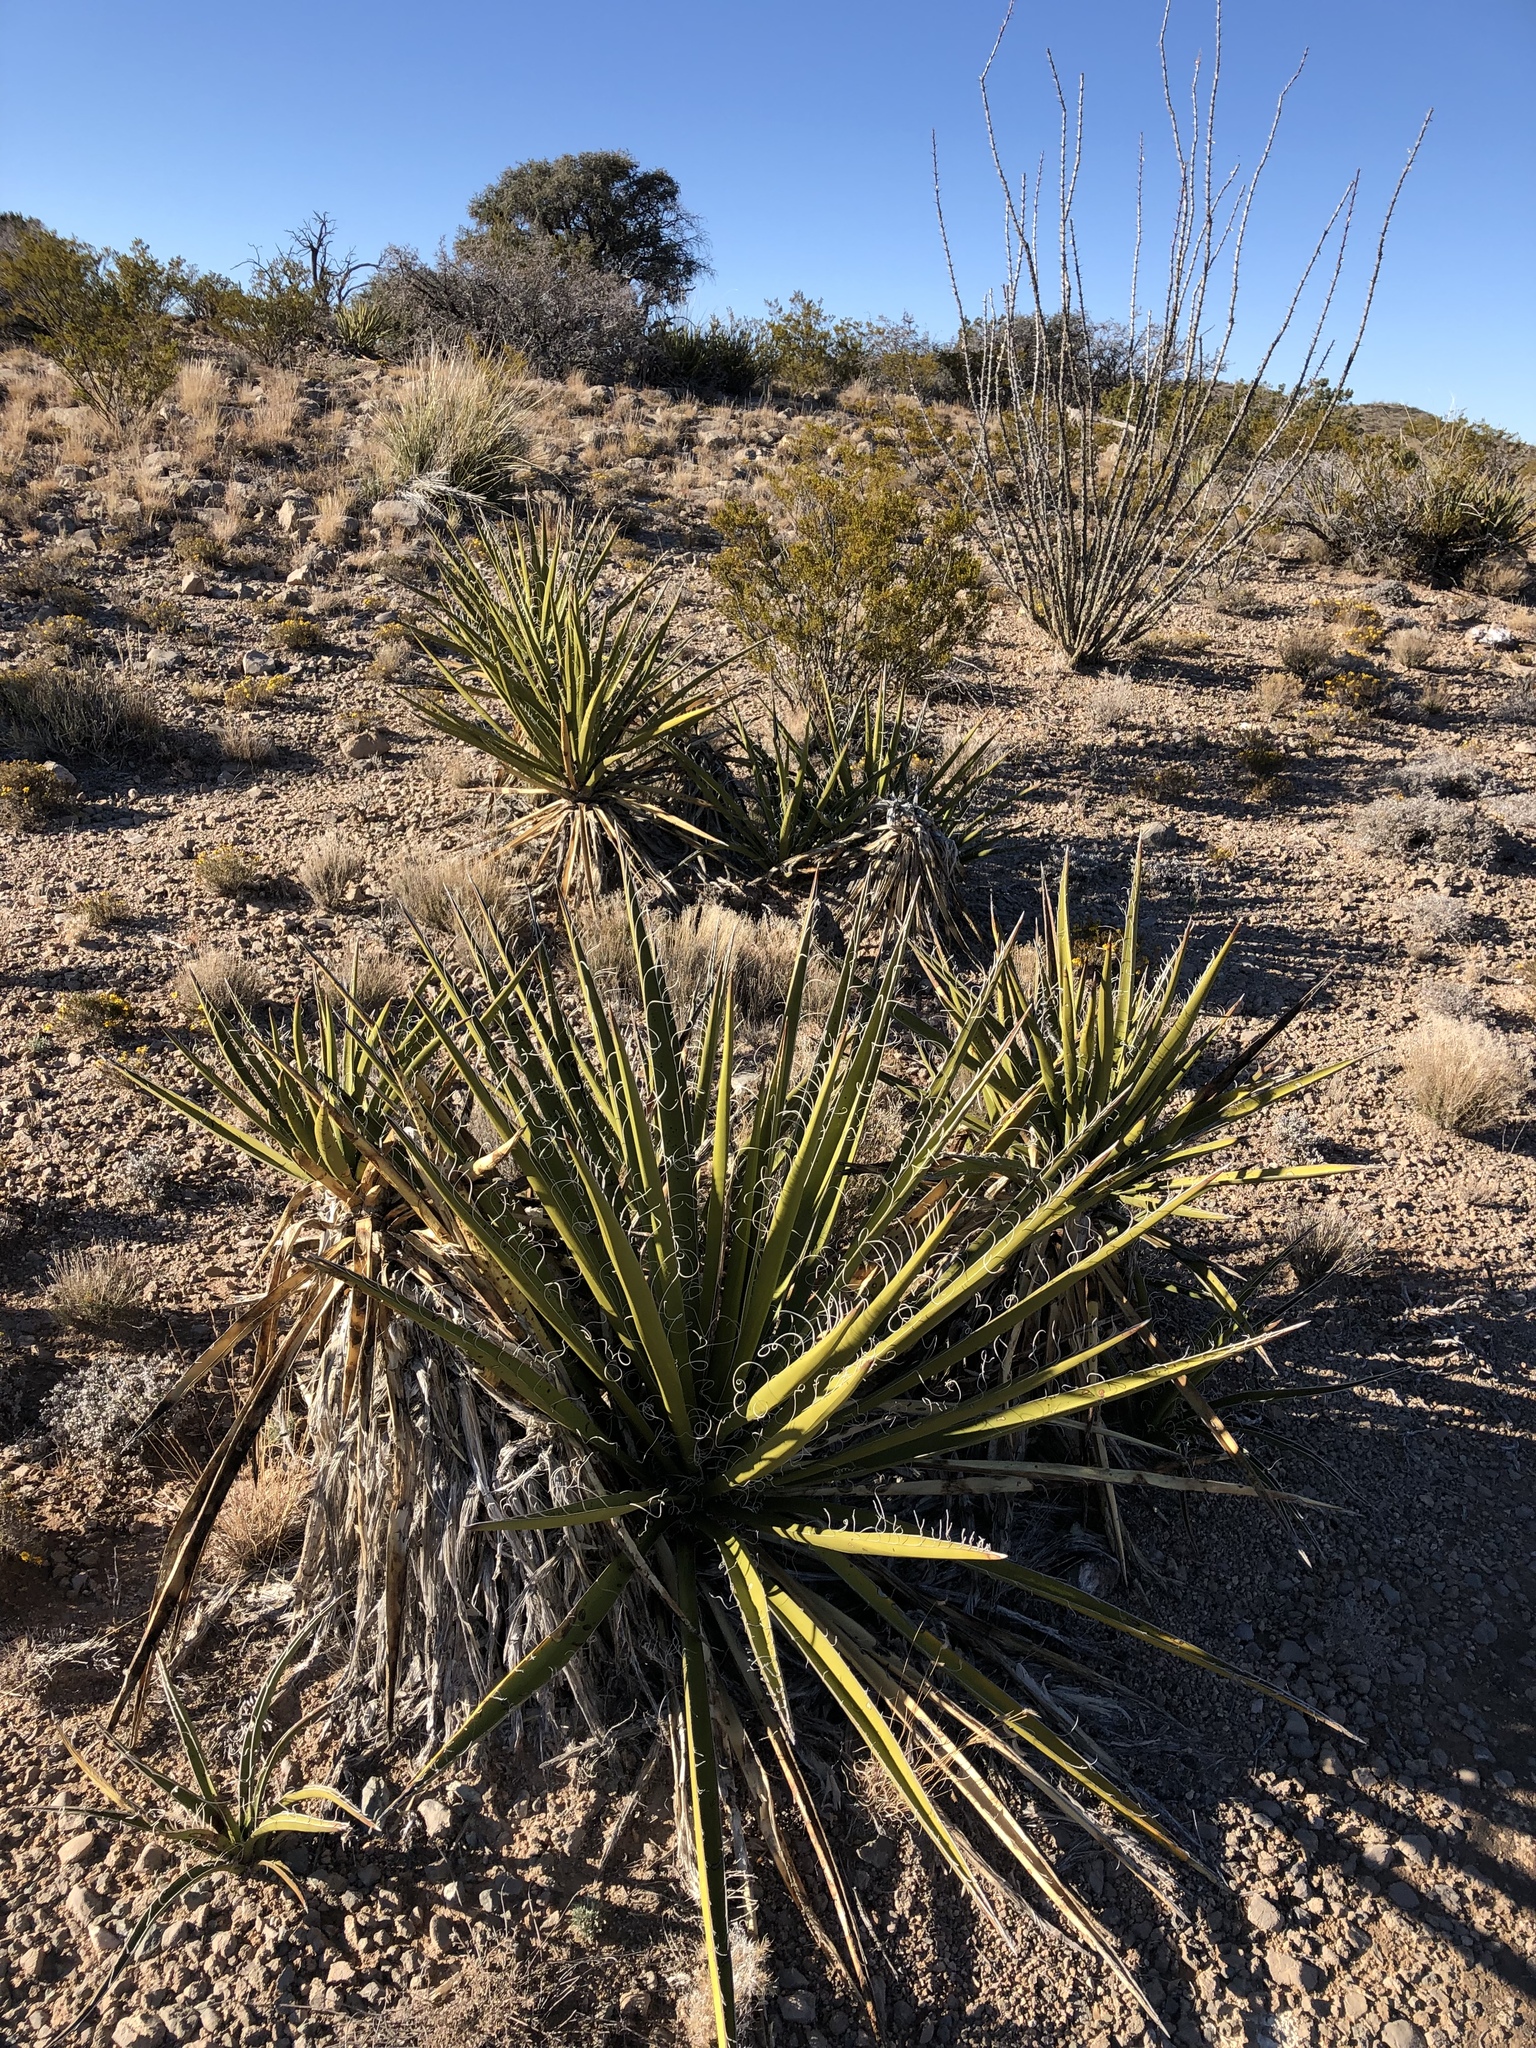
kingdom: Plantae
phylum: Tracheophyta
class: Liliopsida
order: Asparagales
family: Asparagaceae
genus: Yucca
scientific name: Yucca baccata
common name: Banana yucca
